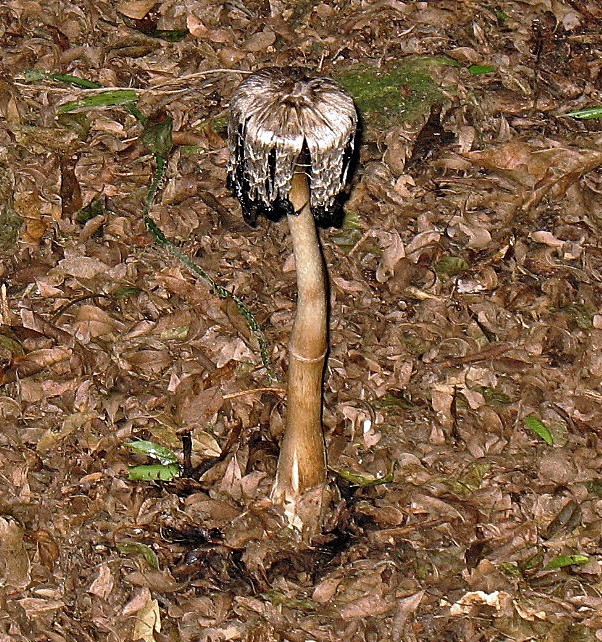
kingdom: Fungi
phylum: Basidiomycota
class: Agaricomycetes
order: Agaricales
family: Agaricaceae
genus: Coprinus
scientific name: Coprinus comatus
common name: Lawyer's wig
